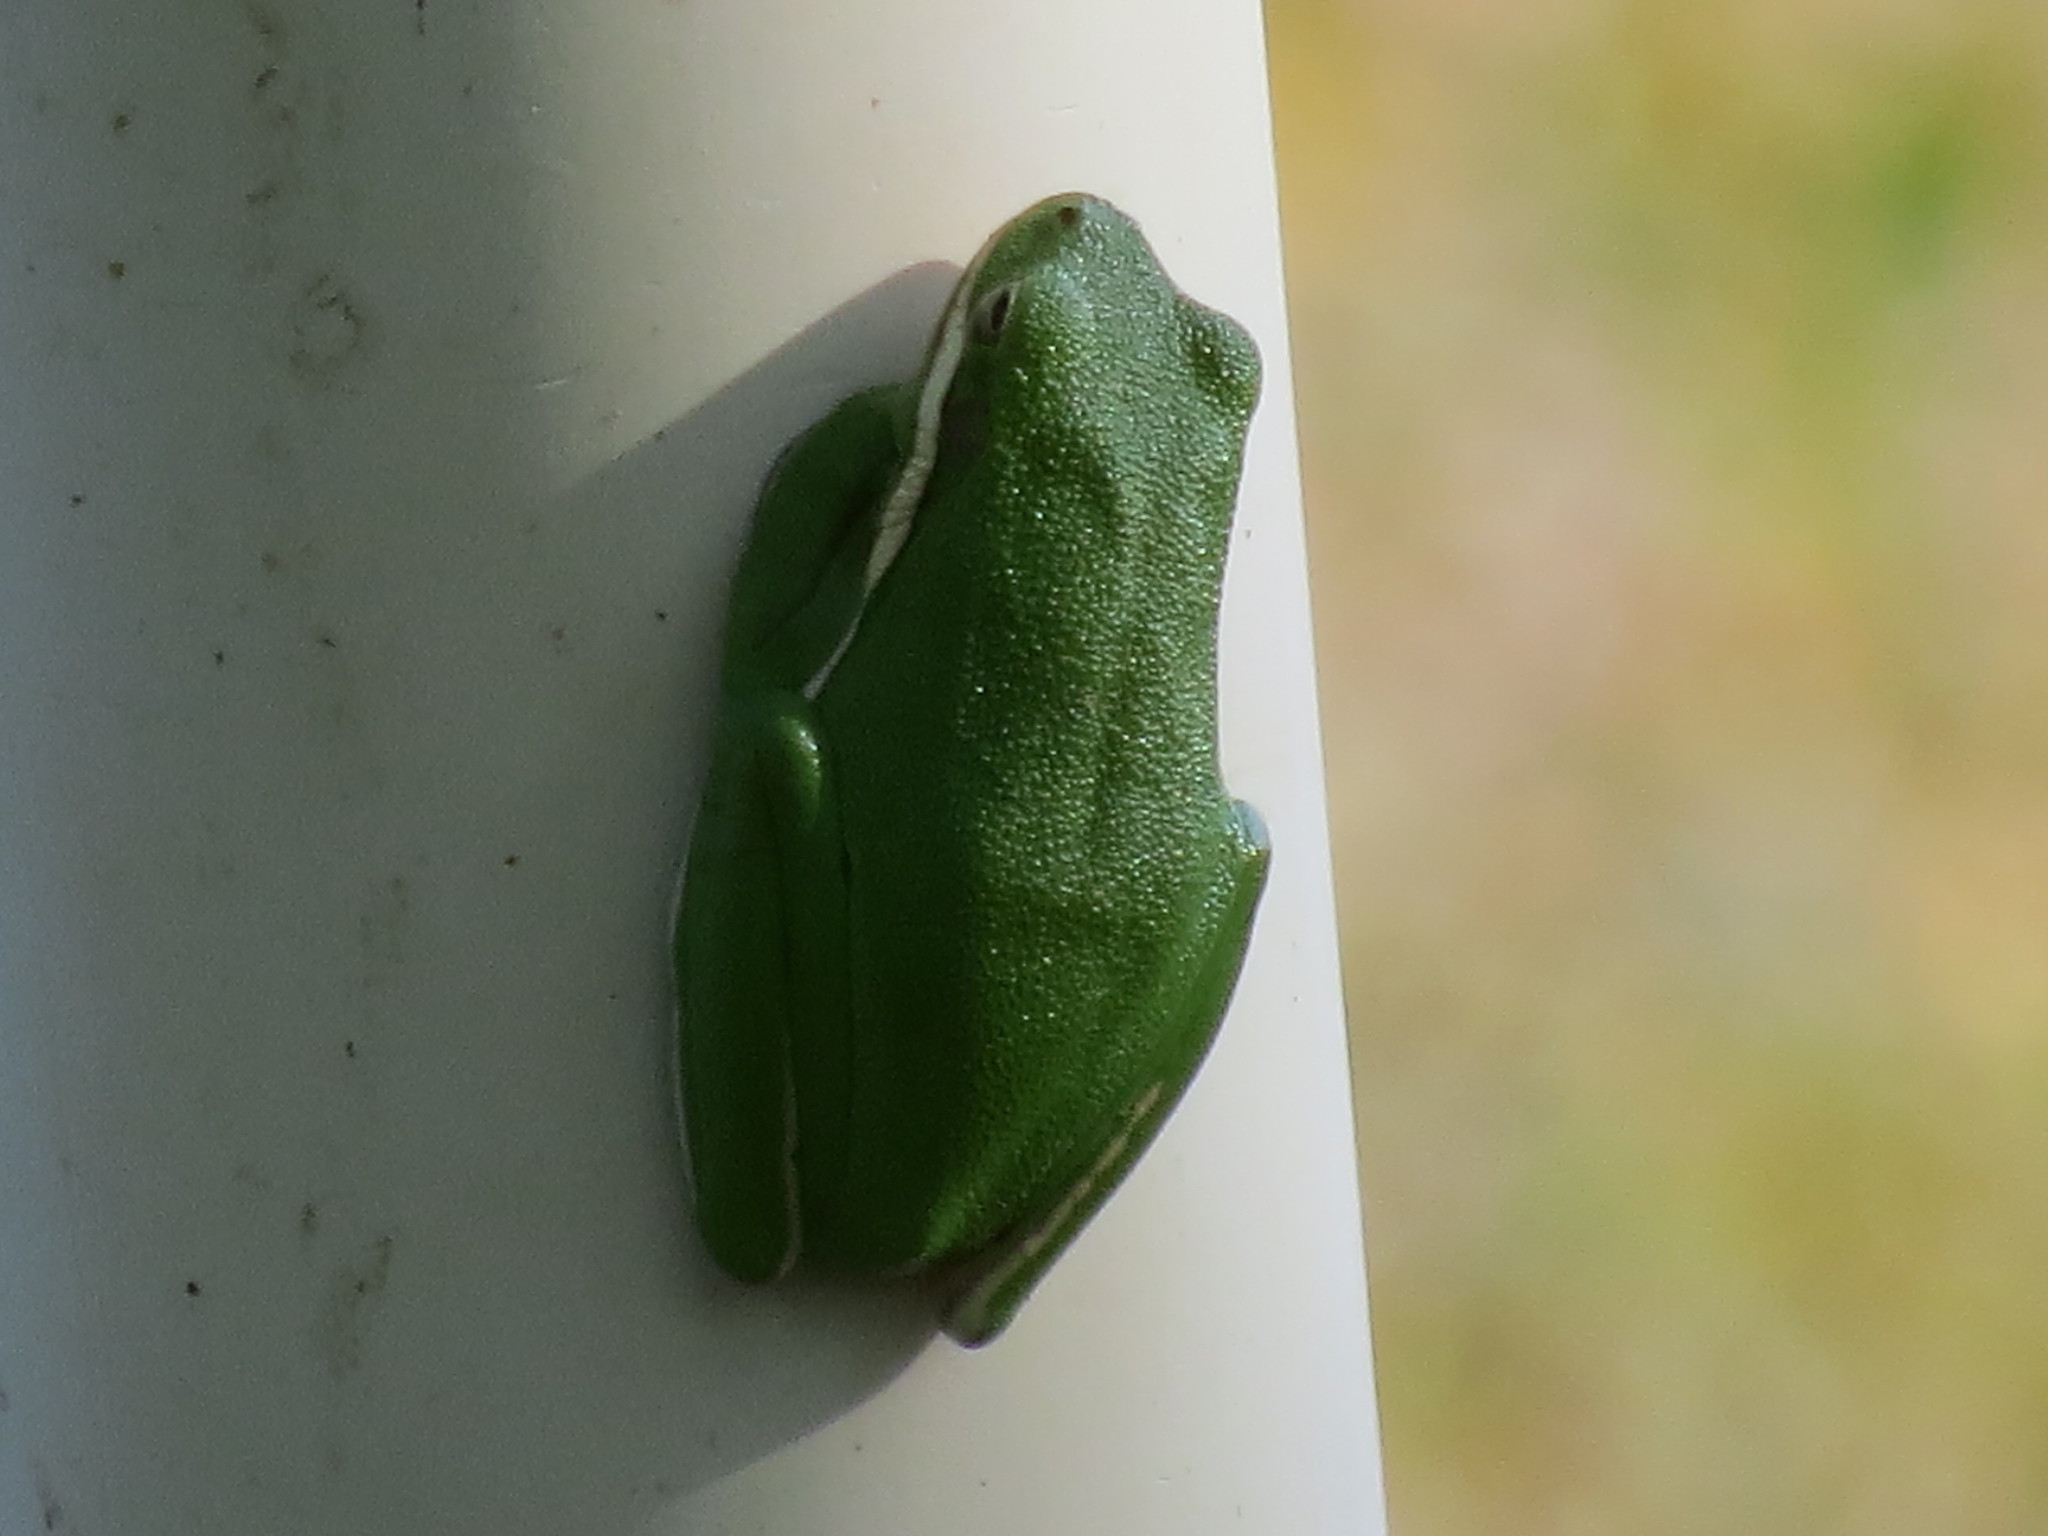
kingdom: Animalia
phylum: Chordata
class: Amphibia
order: Anura
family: Hylidae
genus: Dryophytes
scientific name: Dryophytes cinereus
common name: Green treefrog
